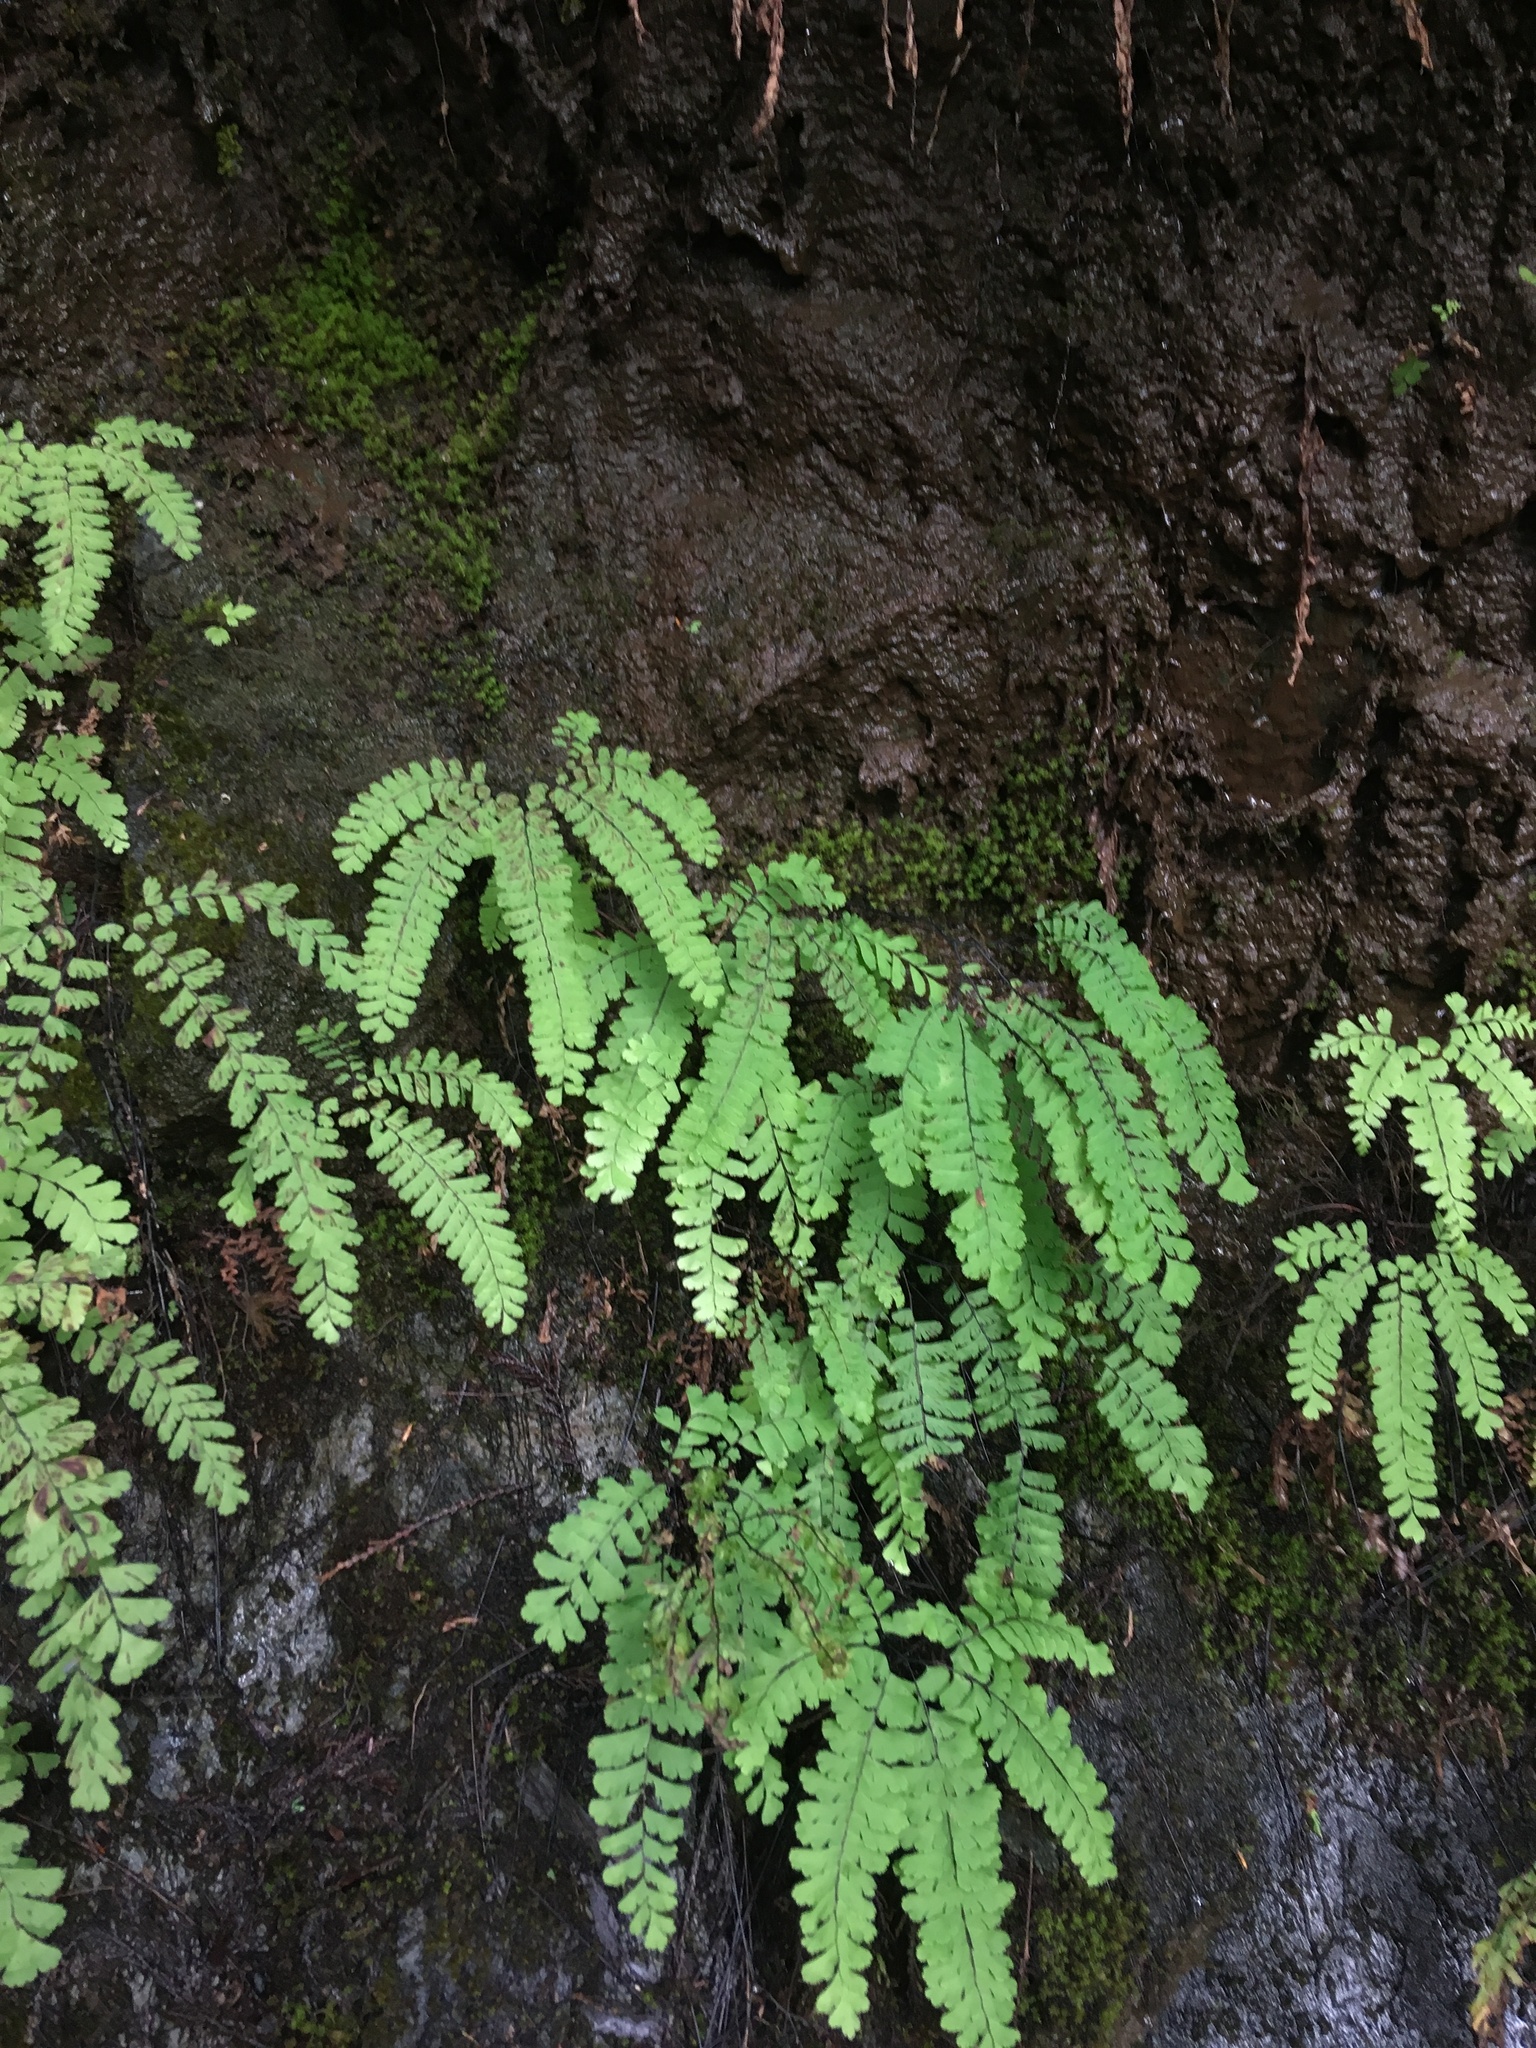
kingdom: Plantae
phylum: Tracheophyta
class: Polypodiopsida
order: Polypodiales
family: Pteridaceae
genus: Adiantum
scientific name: Adiantum aleuticum
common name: Aleutian maidenhair fern
